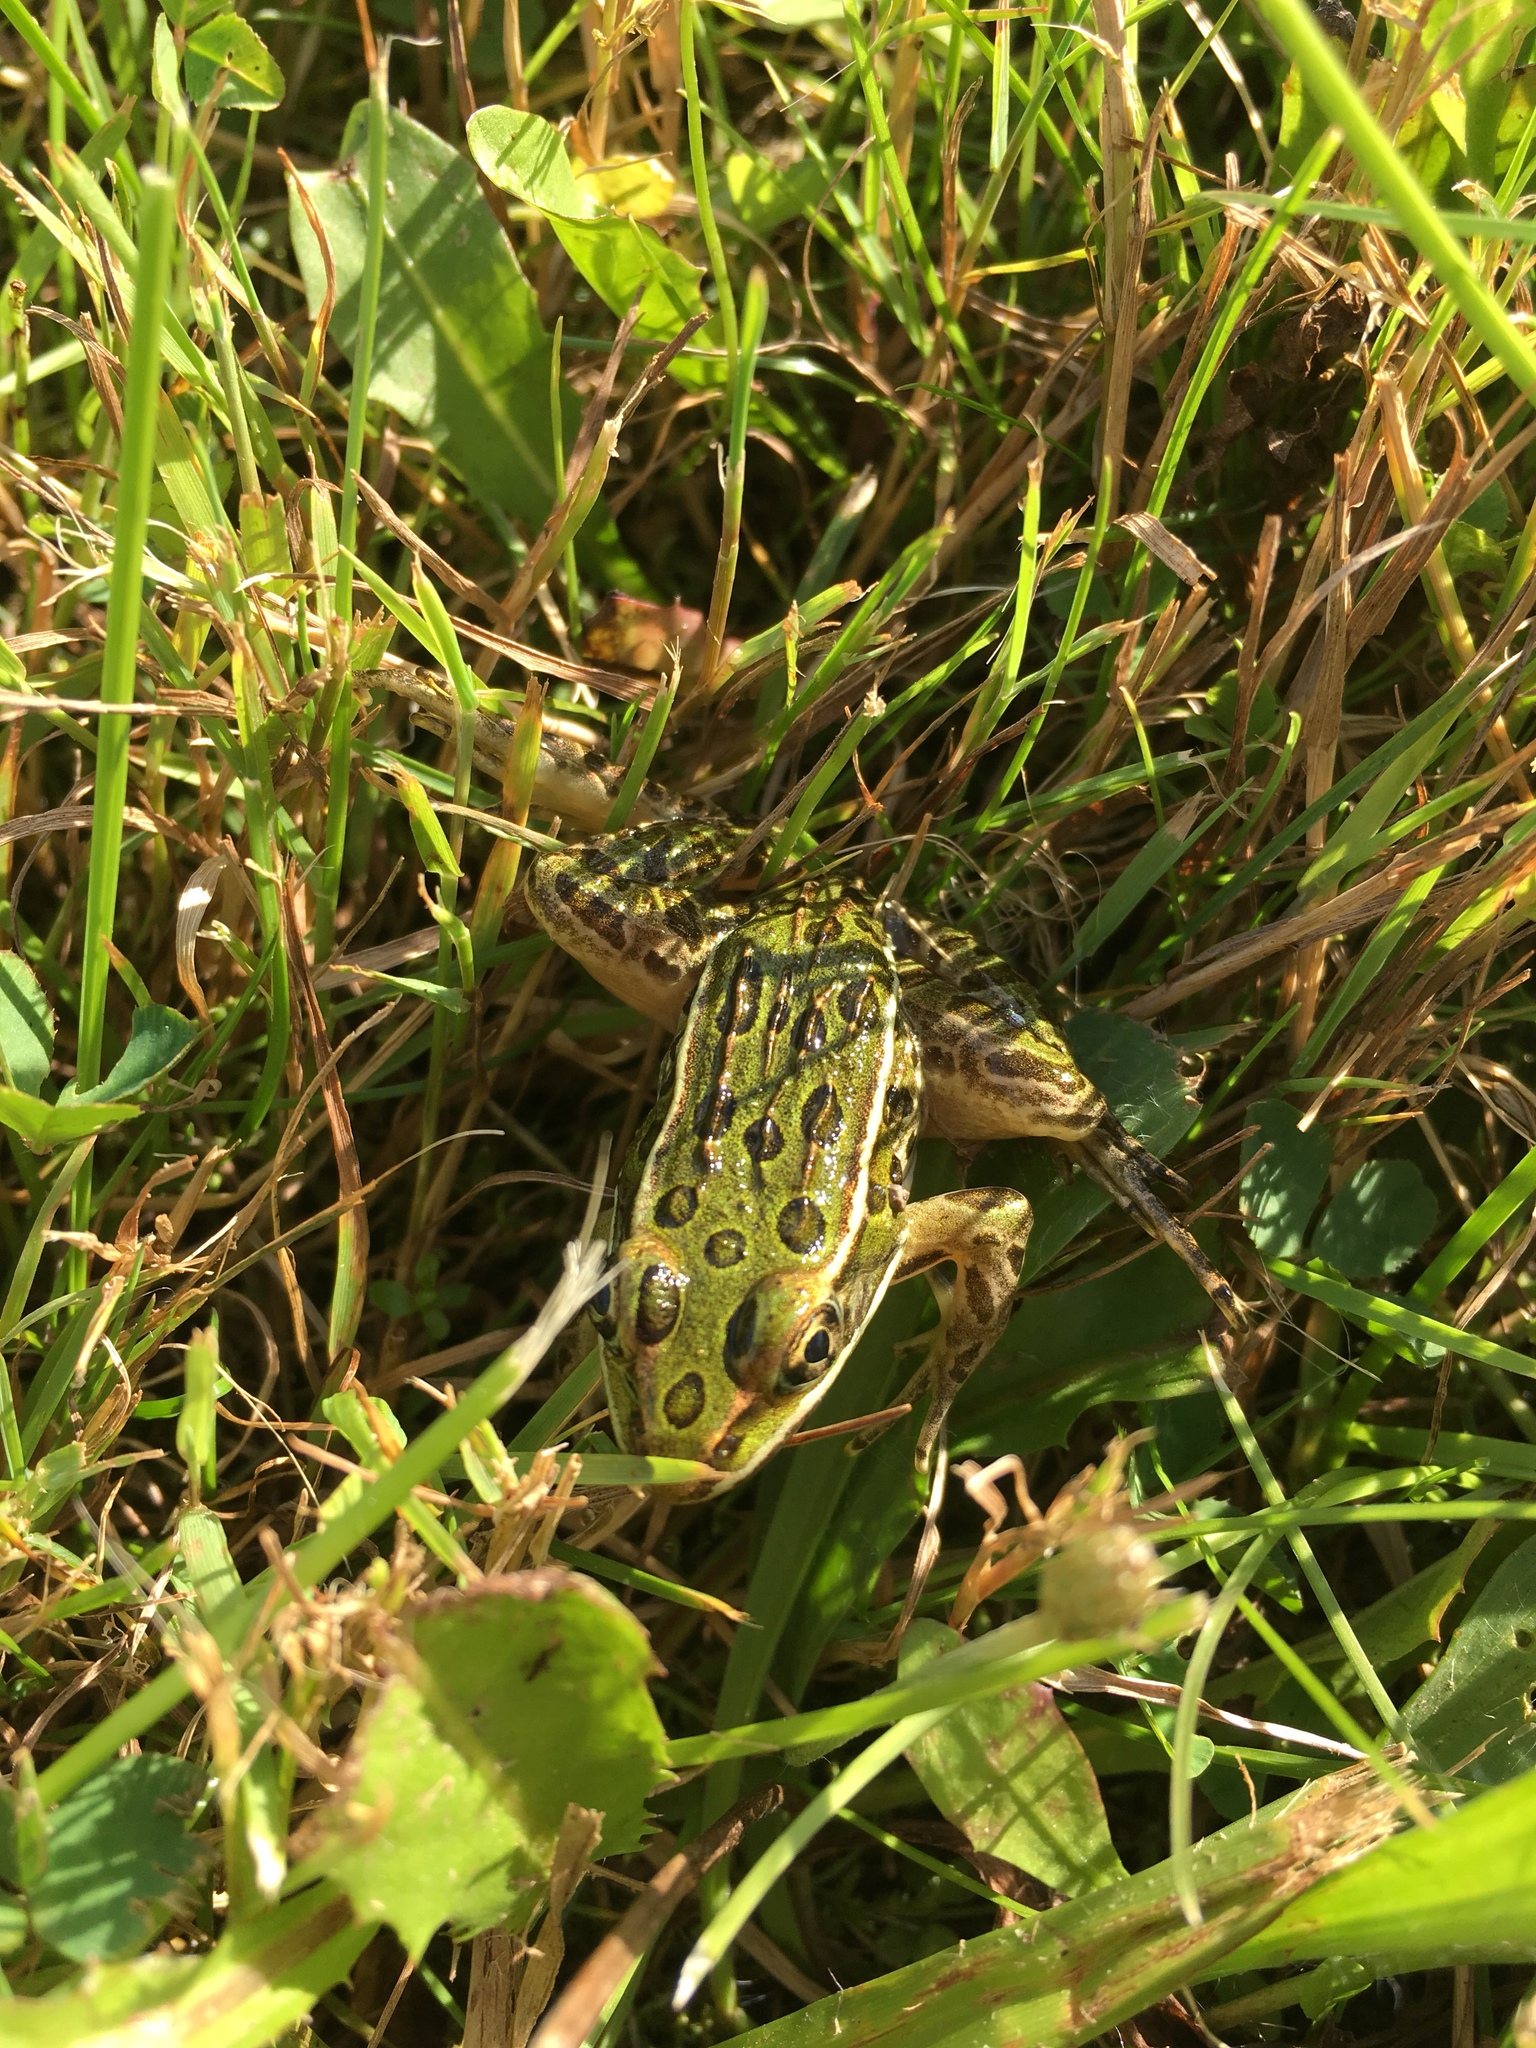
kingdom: Animalia
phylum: Chordata
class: Amphibia
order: Anura
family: Ranidae
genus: Lithobates
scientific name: Lithobates pipiens
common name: Northern leopard frog
